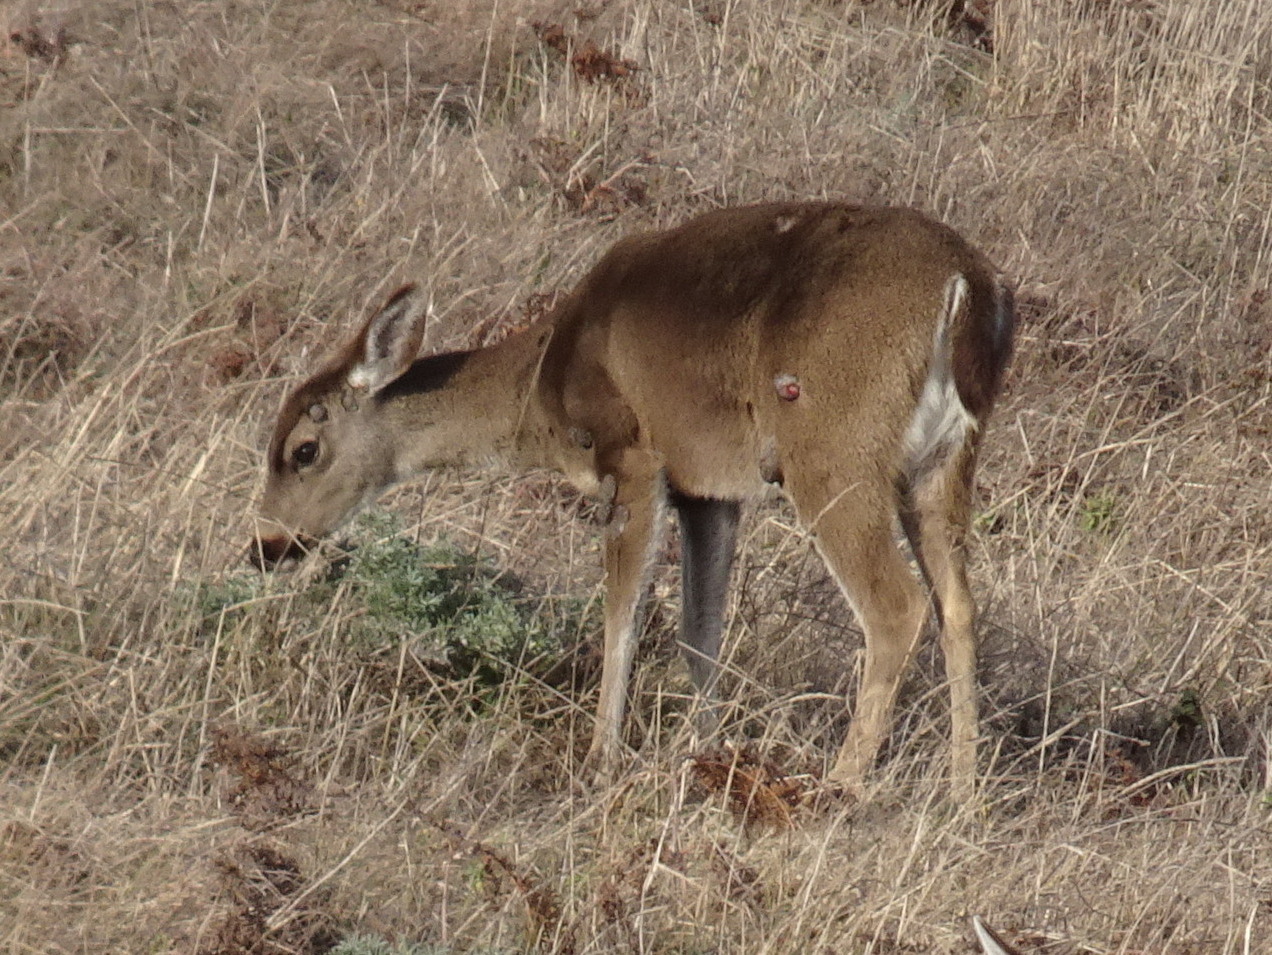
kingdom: Viruses
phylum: Cossaviricota
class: Papovaviricetes
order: Zurhausenvirales
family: Papillomaviridae
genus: Deltapapillomavirus
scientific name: Deltapapillomavirus
